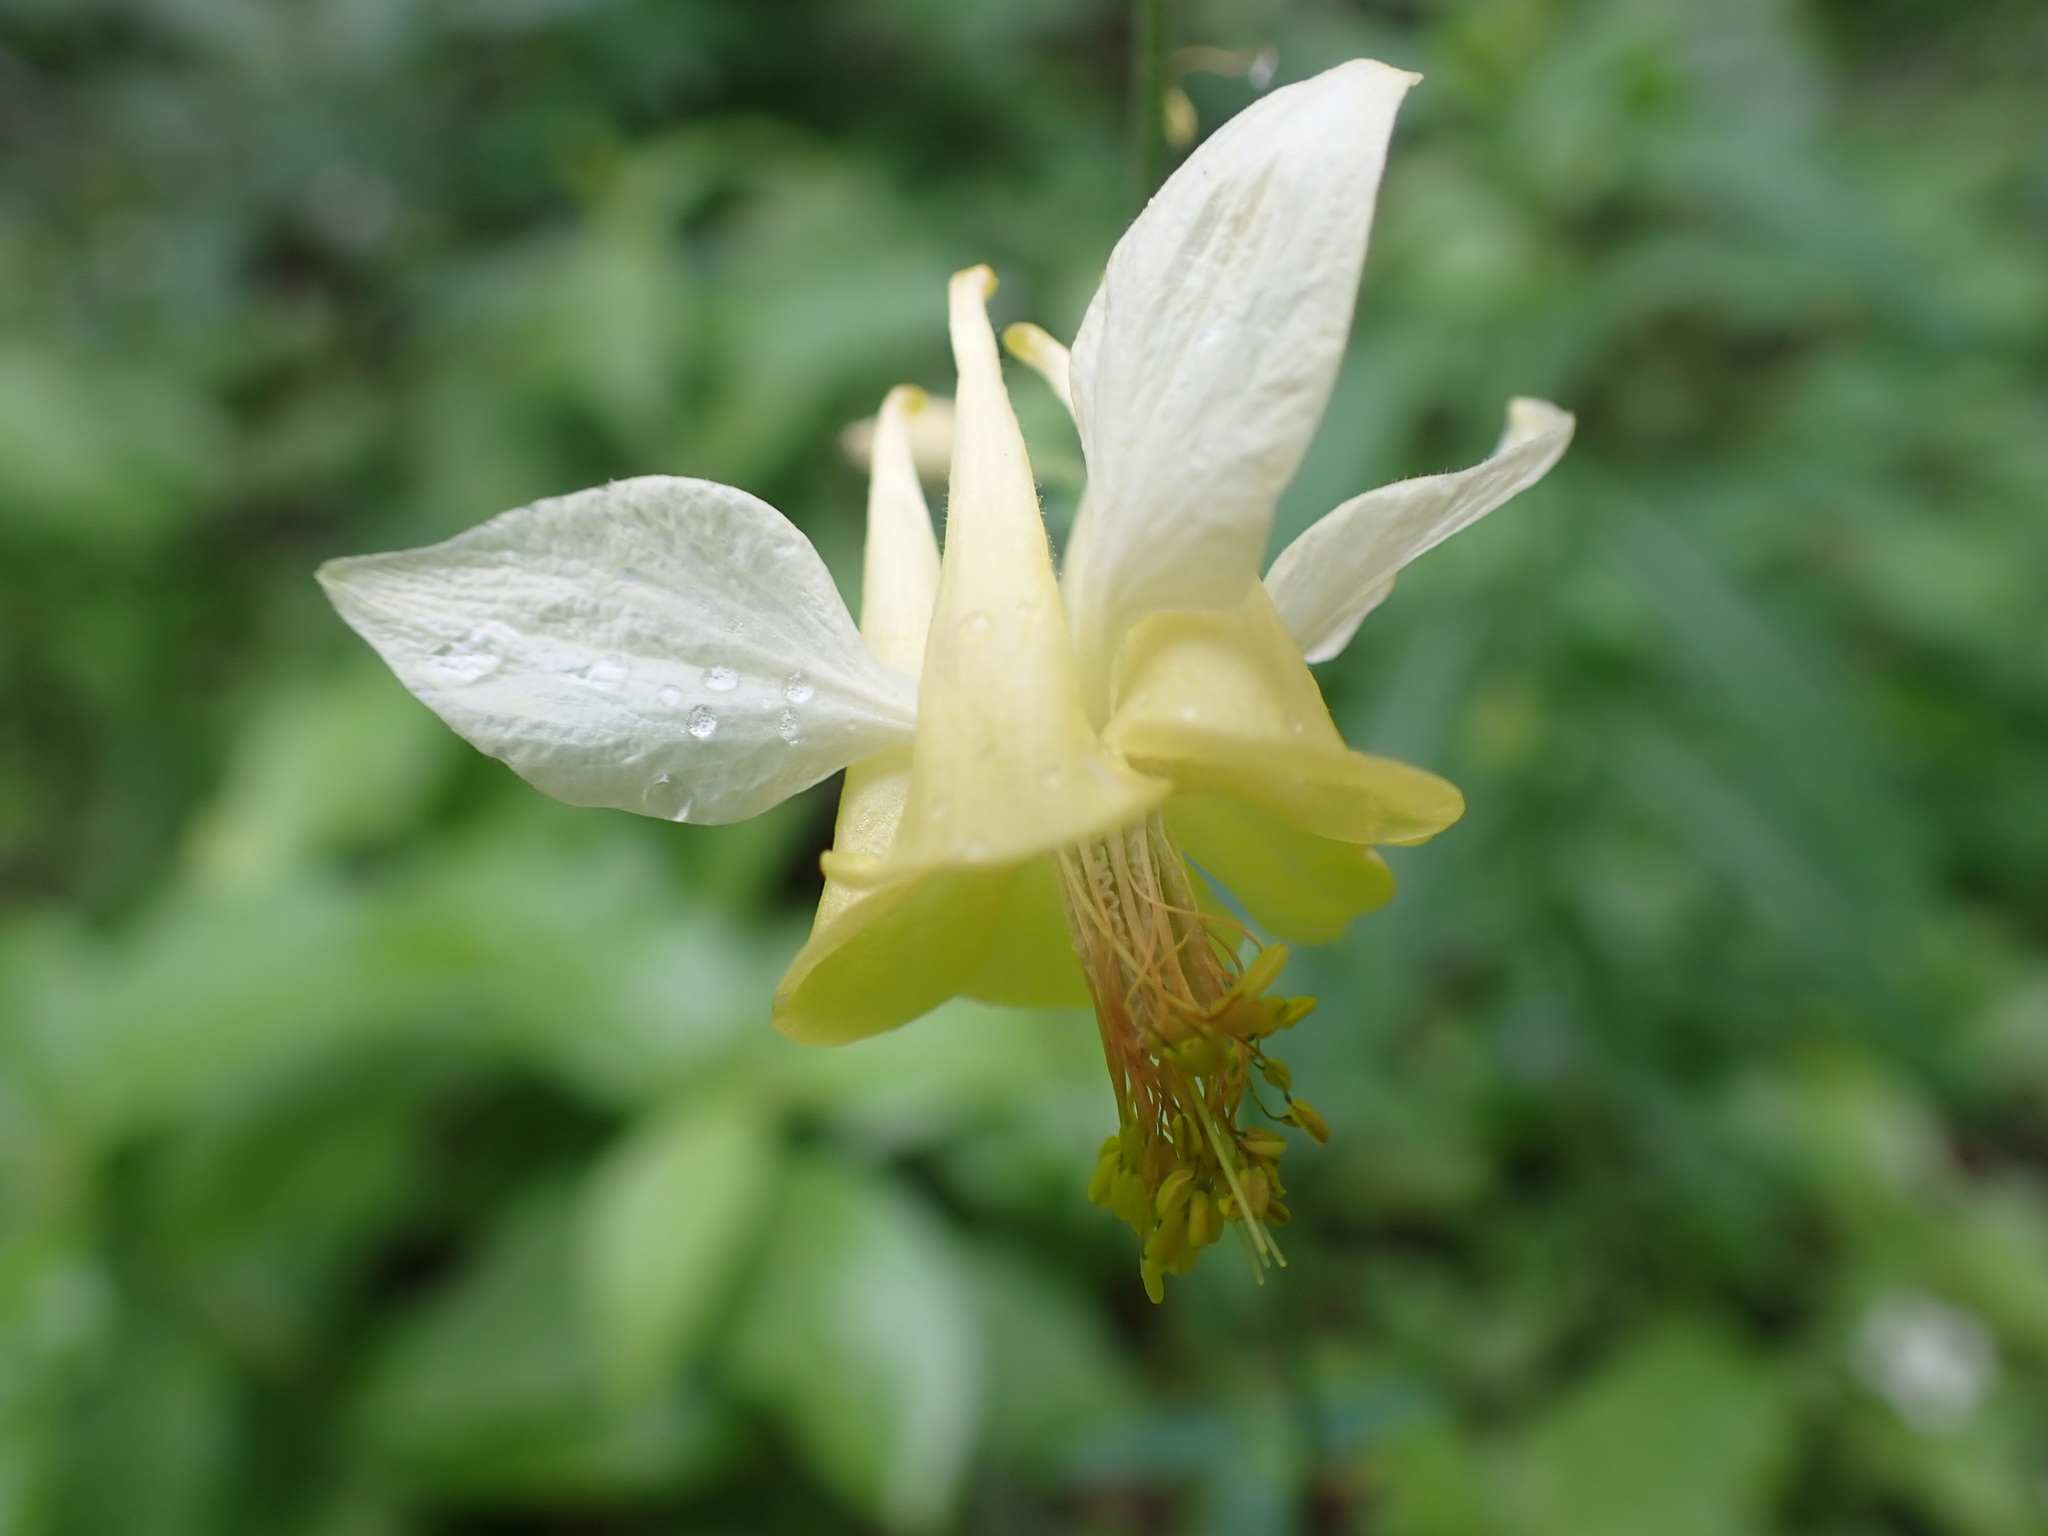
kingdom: Plantae
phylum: Tracheophyta
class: Magnoliopsida
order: Ranunculales
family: Ranunculaceae
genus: Aquilegia
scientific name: Aquilegia flavescens
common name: Yellow columbine
